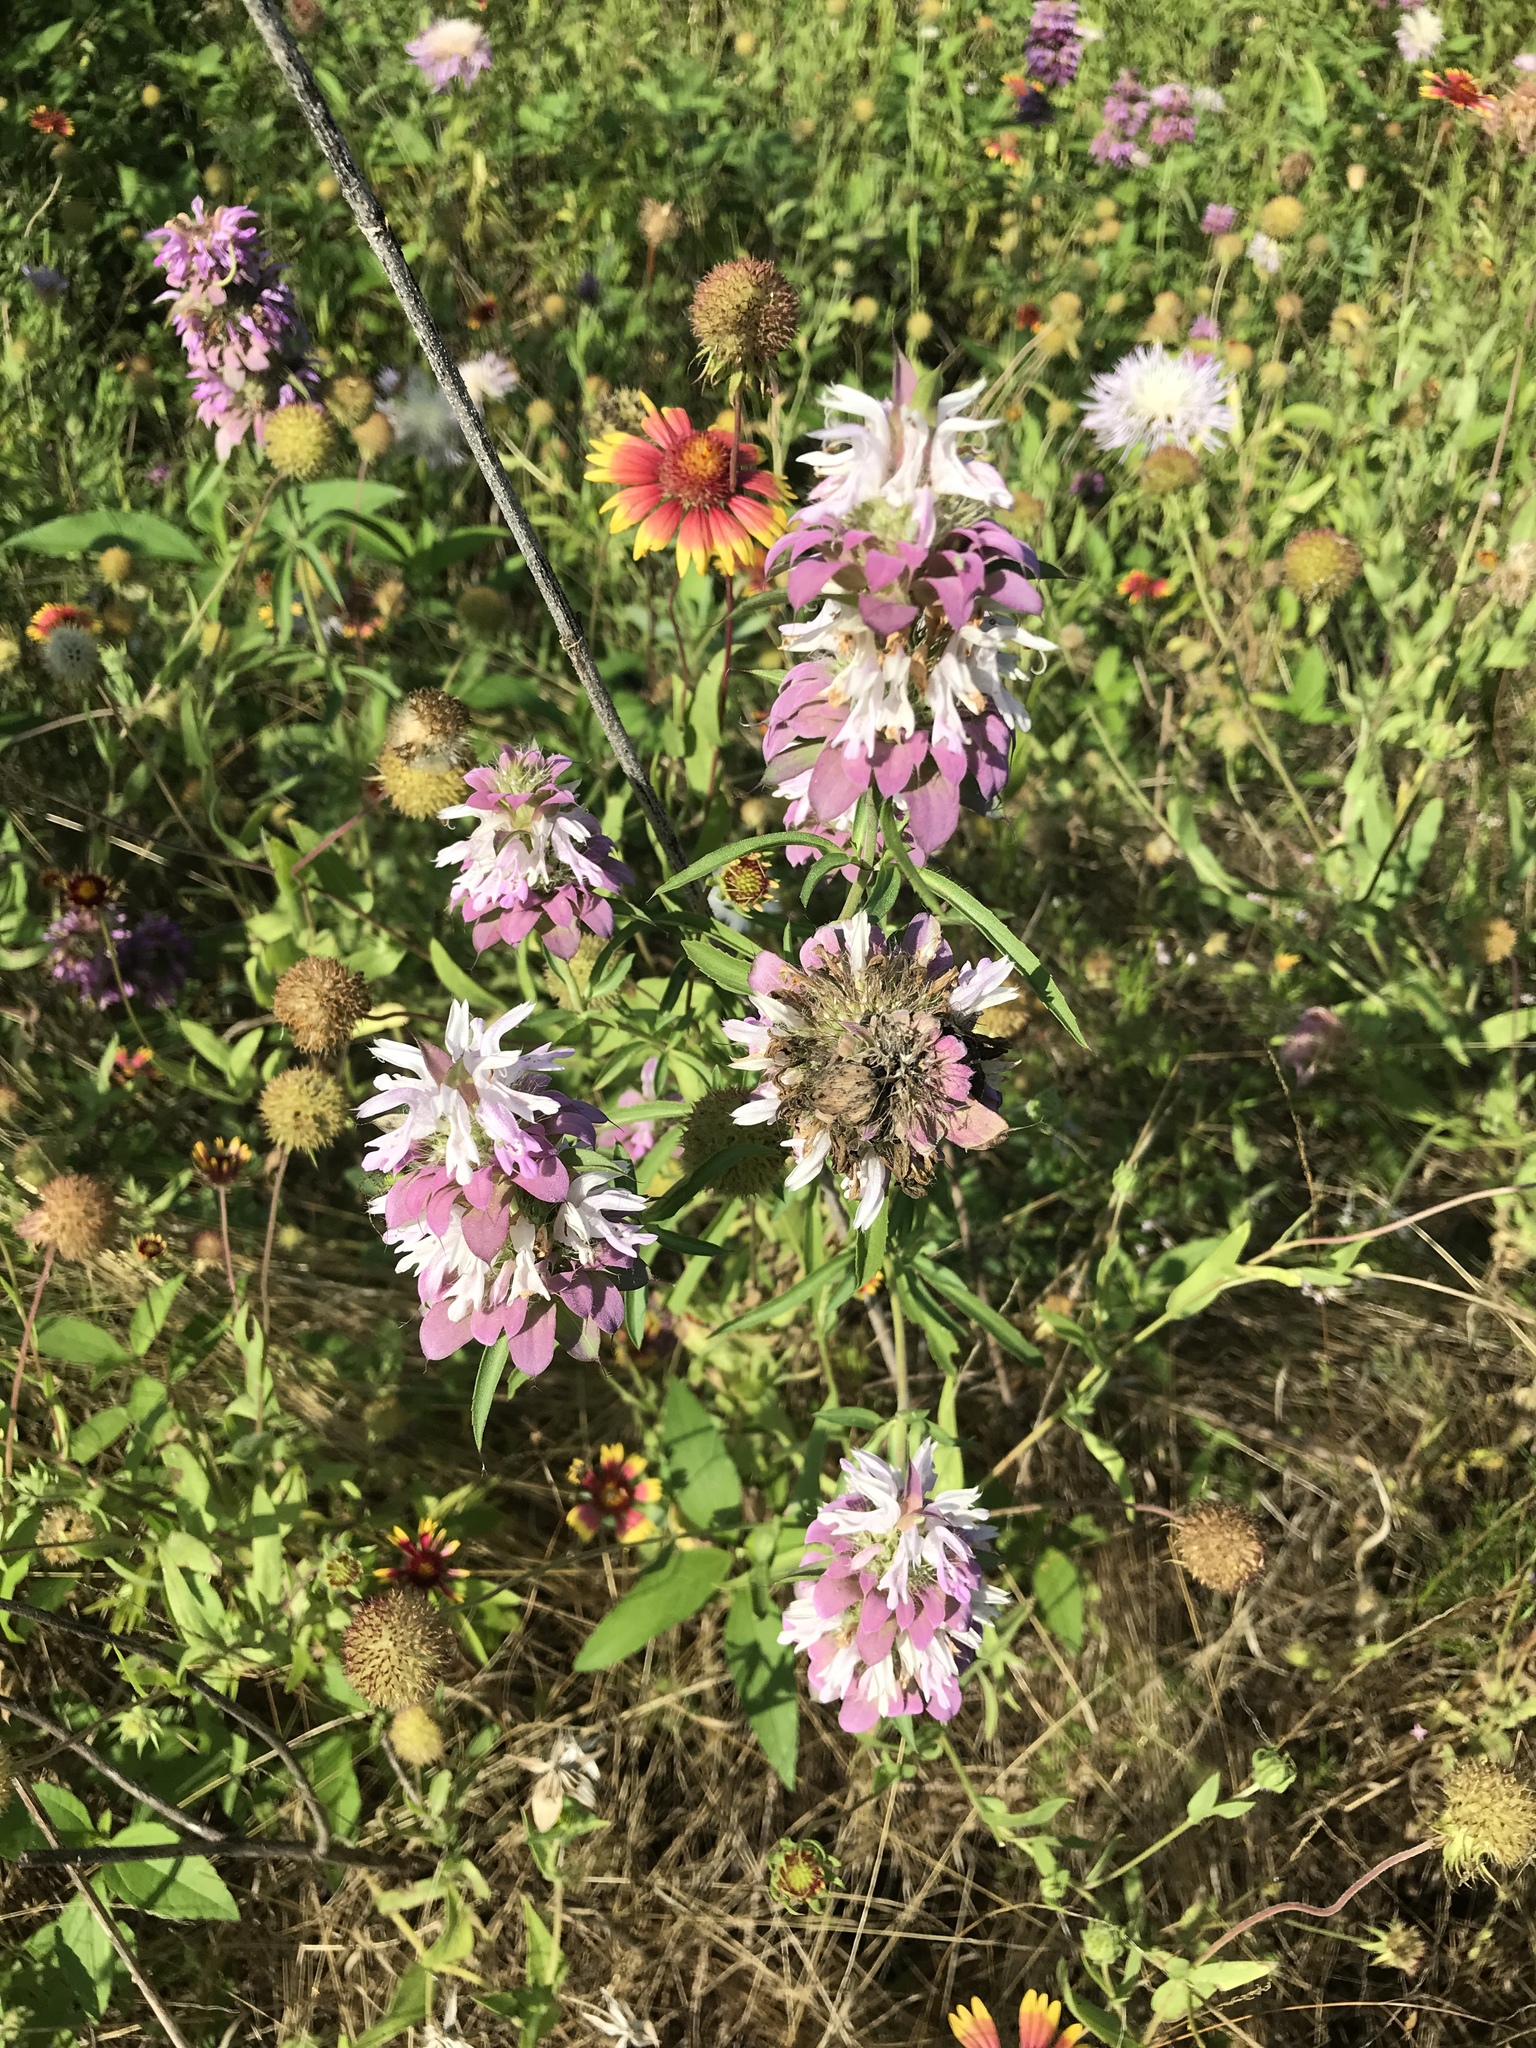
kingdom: Plantae
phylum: Tracheophyta
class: Magnoliopsida
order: Lamiales
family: Lamiaceae
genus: Monarda
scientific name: Monarda citriodora
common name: Lemon beebalm
